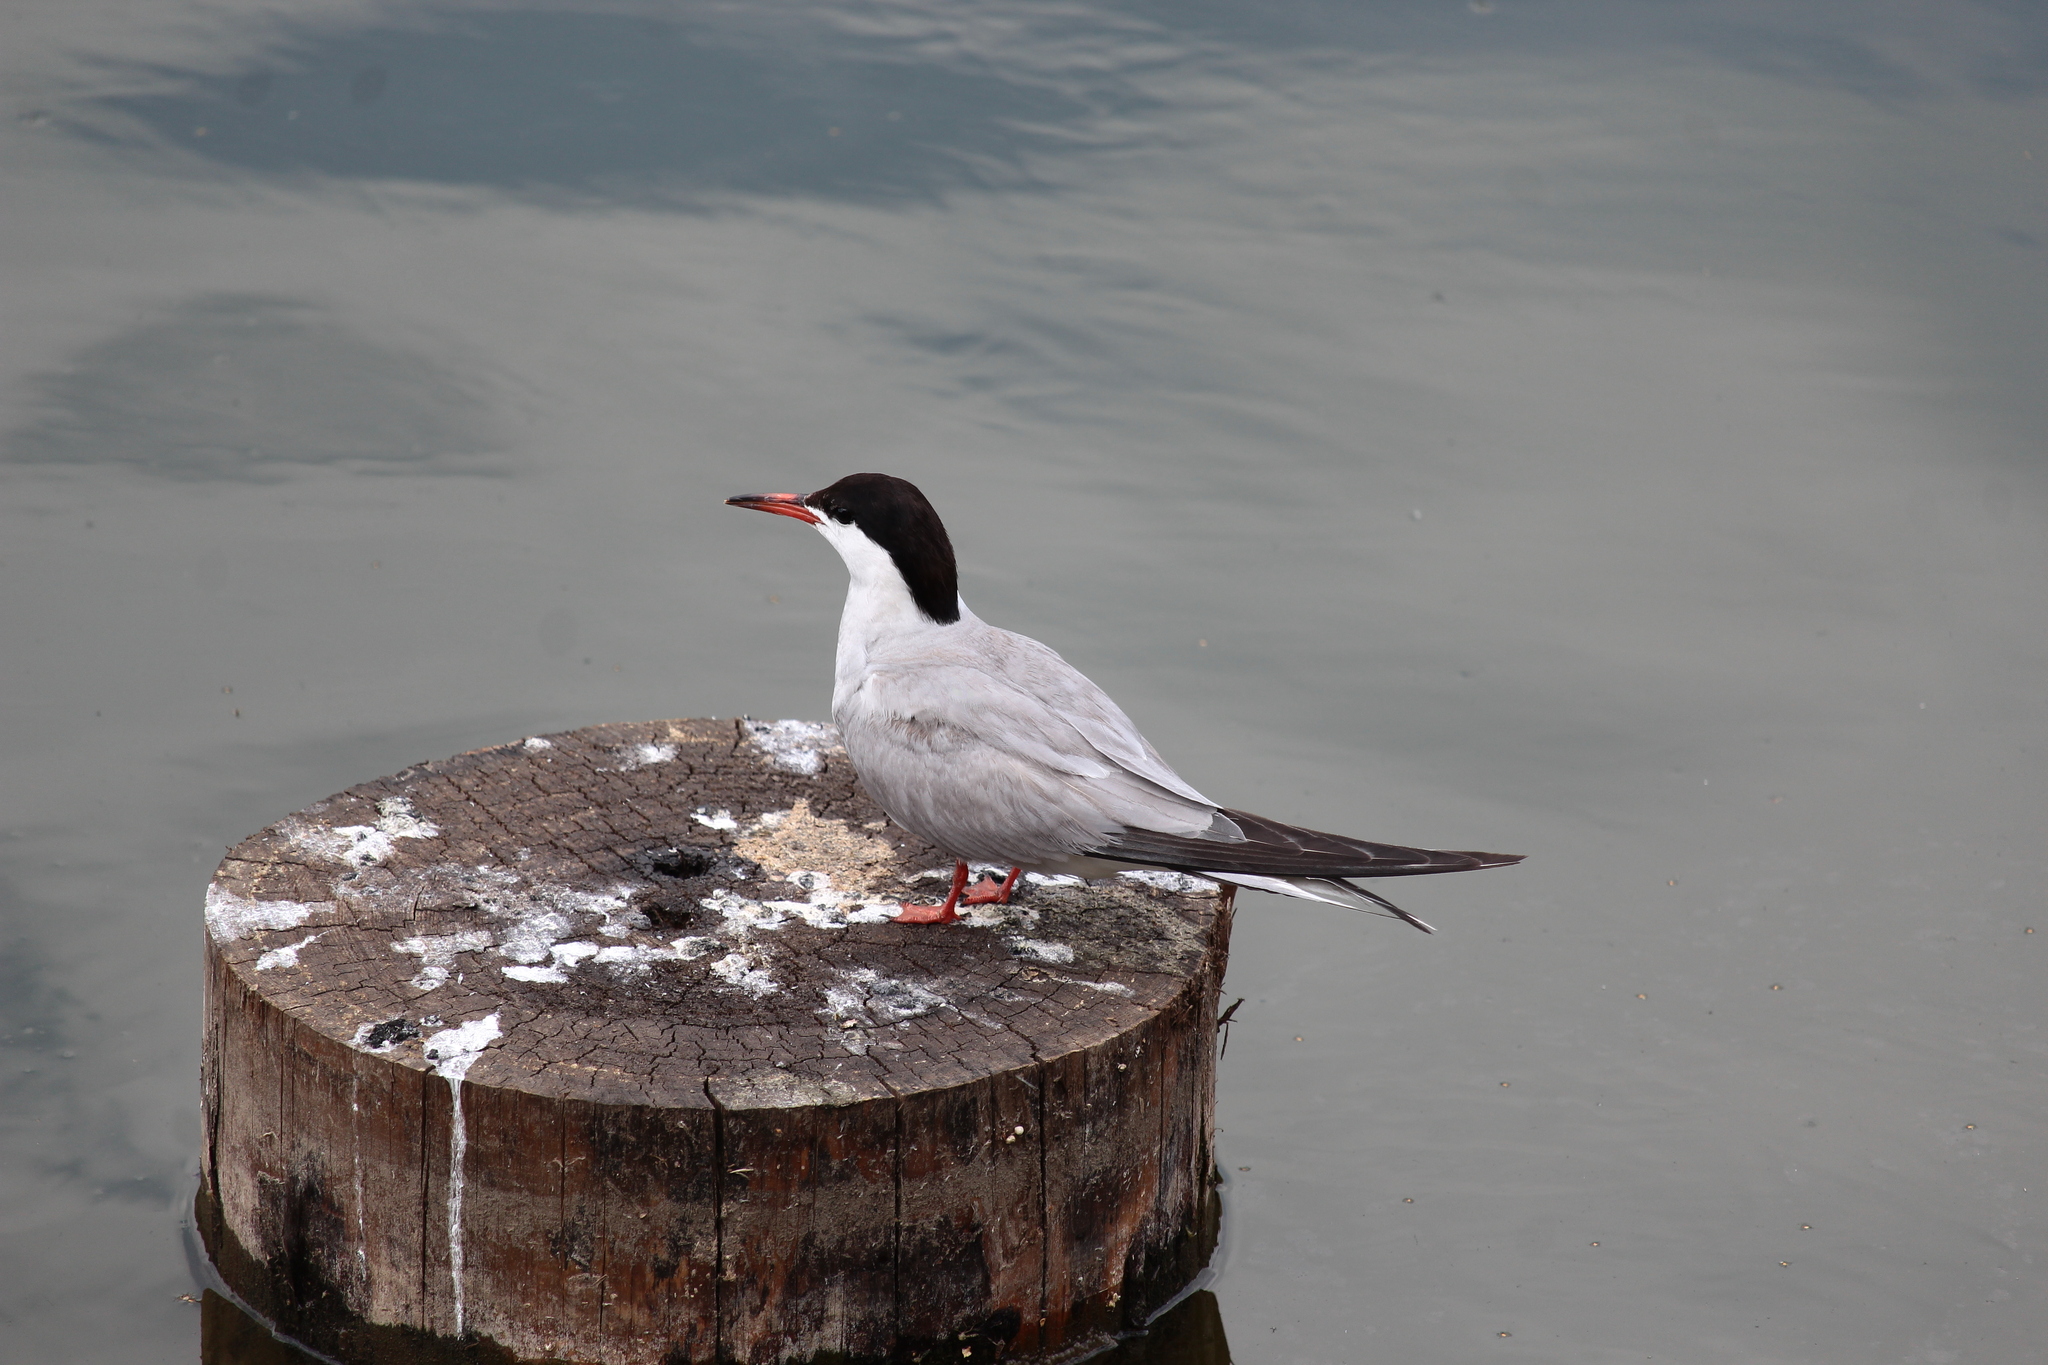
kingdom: Animalia
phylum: Chordata
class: Aves
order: Charadriiformes
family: Laridae
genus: Sterna
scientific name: Sterna hirundo
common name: Common tern
